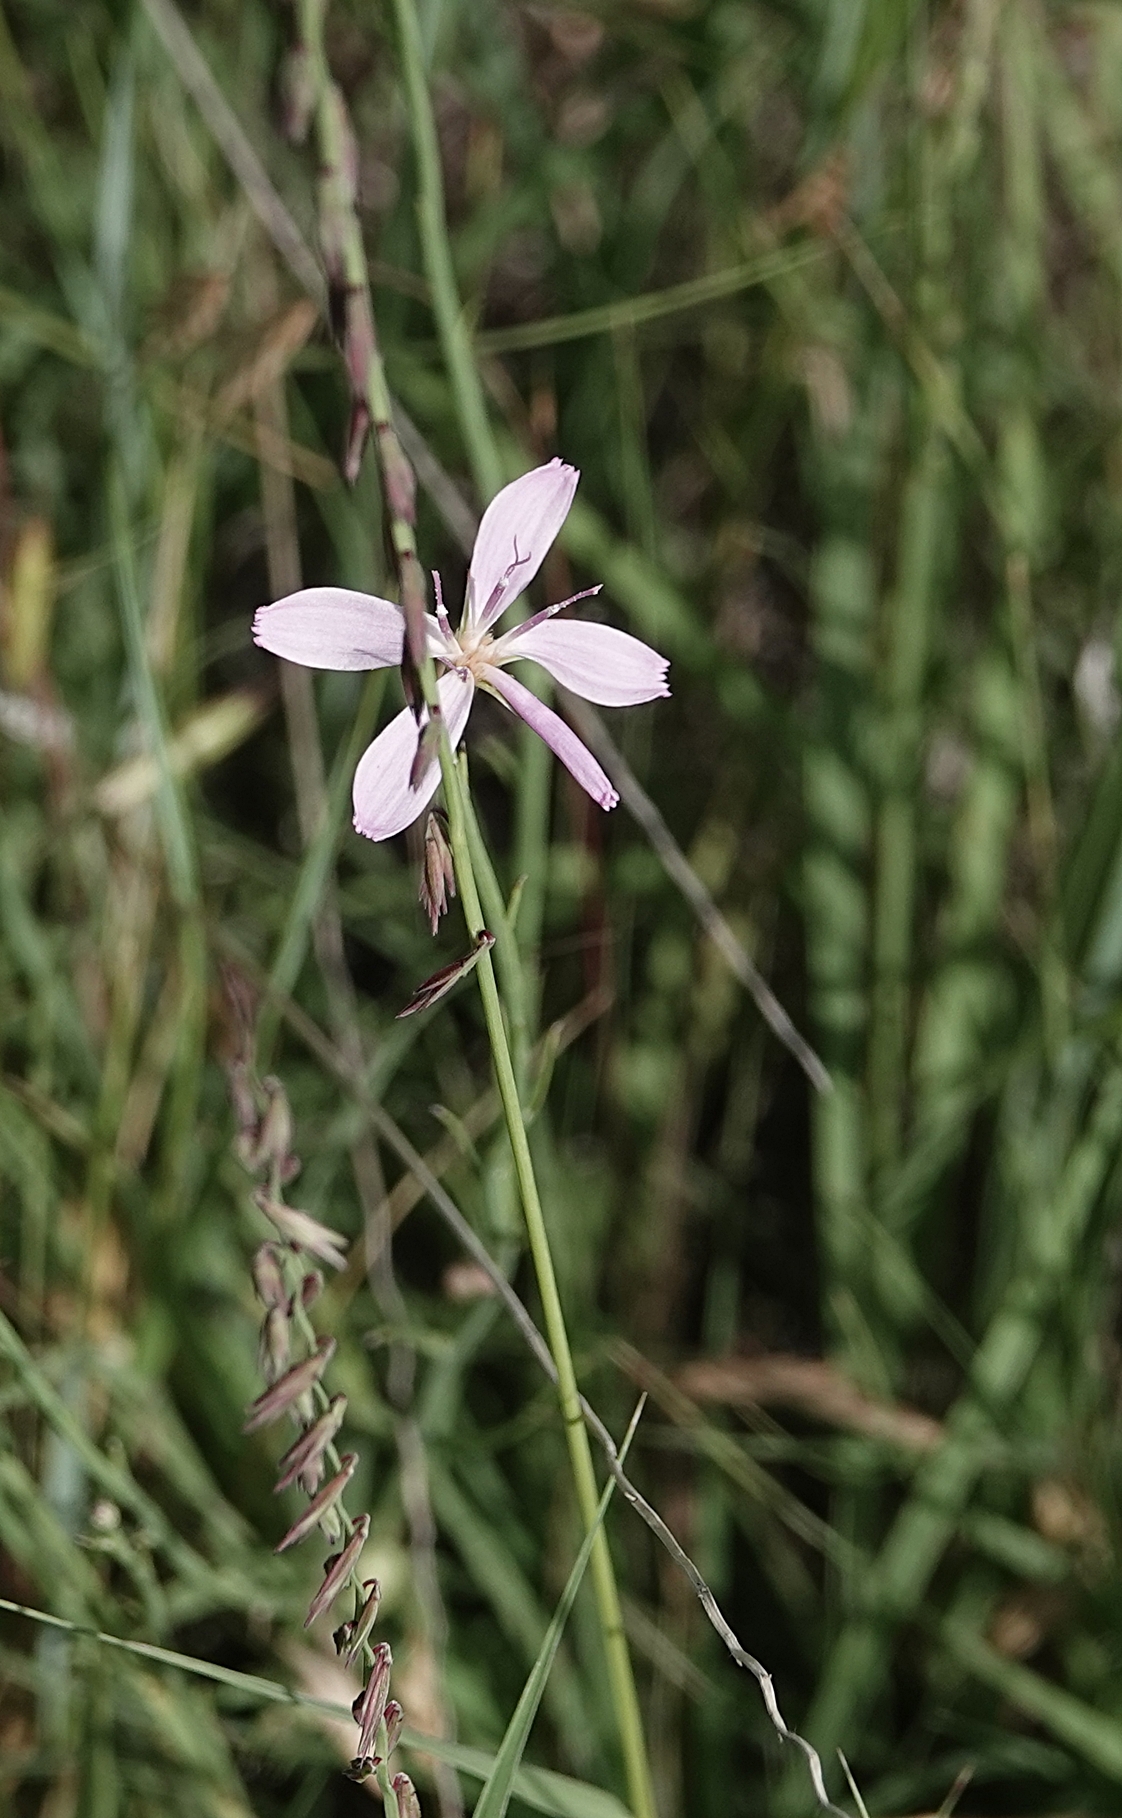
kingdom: Plantae
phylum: Tracheophyta
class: Magnoliopsida
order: Asterales
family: Asteraceae
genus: Lygodesmia
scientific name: Lygodesmia juncea
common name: Common skeletonweed
